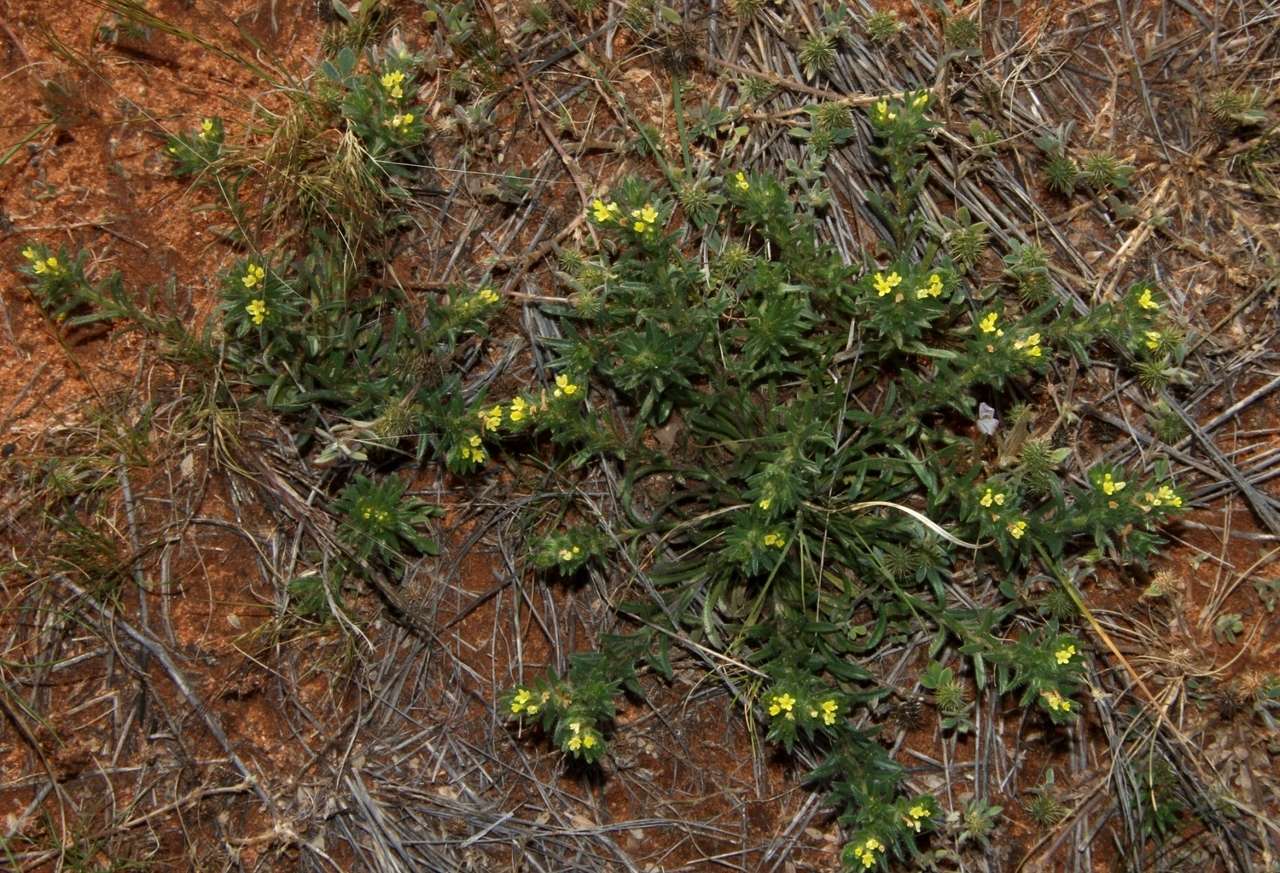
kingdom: Plantae
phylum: Tracheophyta
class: Magnoliopsida
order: Boraginales
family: Boraginaceae
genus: Neatostema
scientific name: Neatostema apulum
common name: Hairy sheepweed
